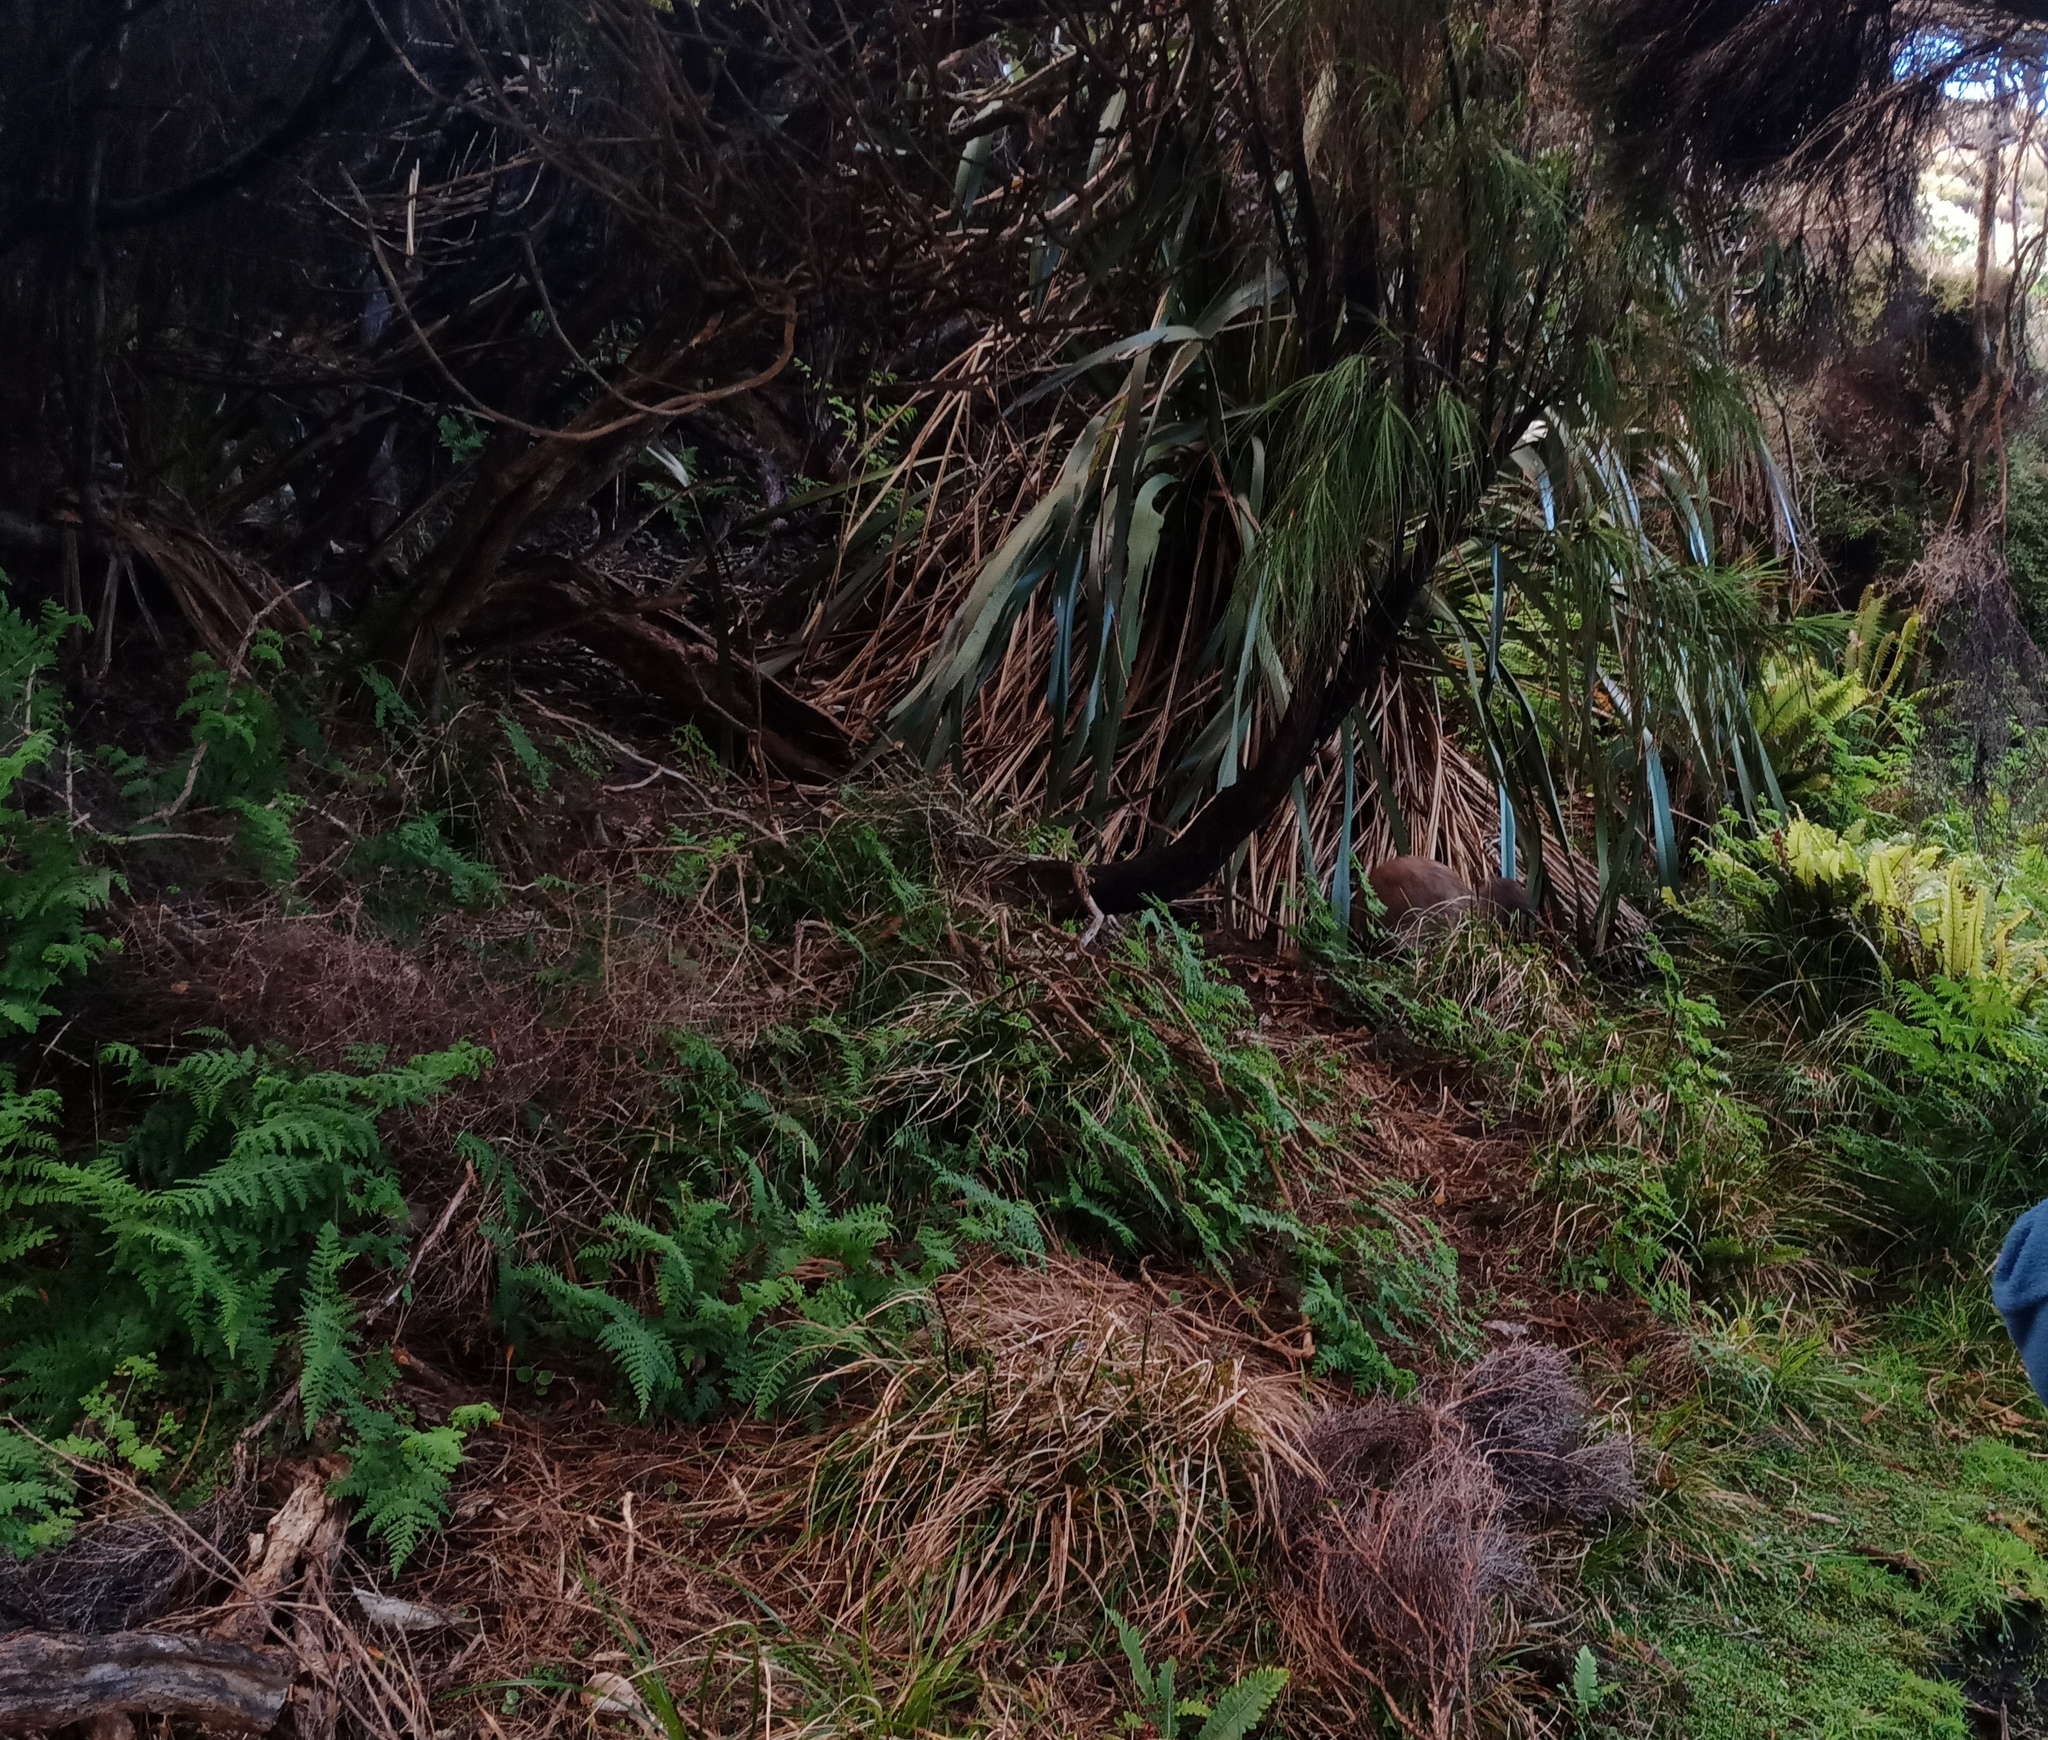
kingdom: Animalia
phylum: Chordata
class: Aves
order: Apterygiformes
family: Apterygidae
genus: Apteryx
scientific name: Apteryx australis
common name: Southern brown kiwi
